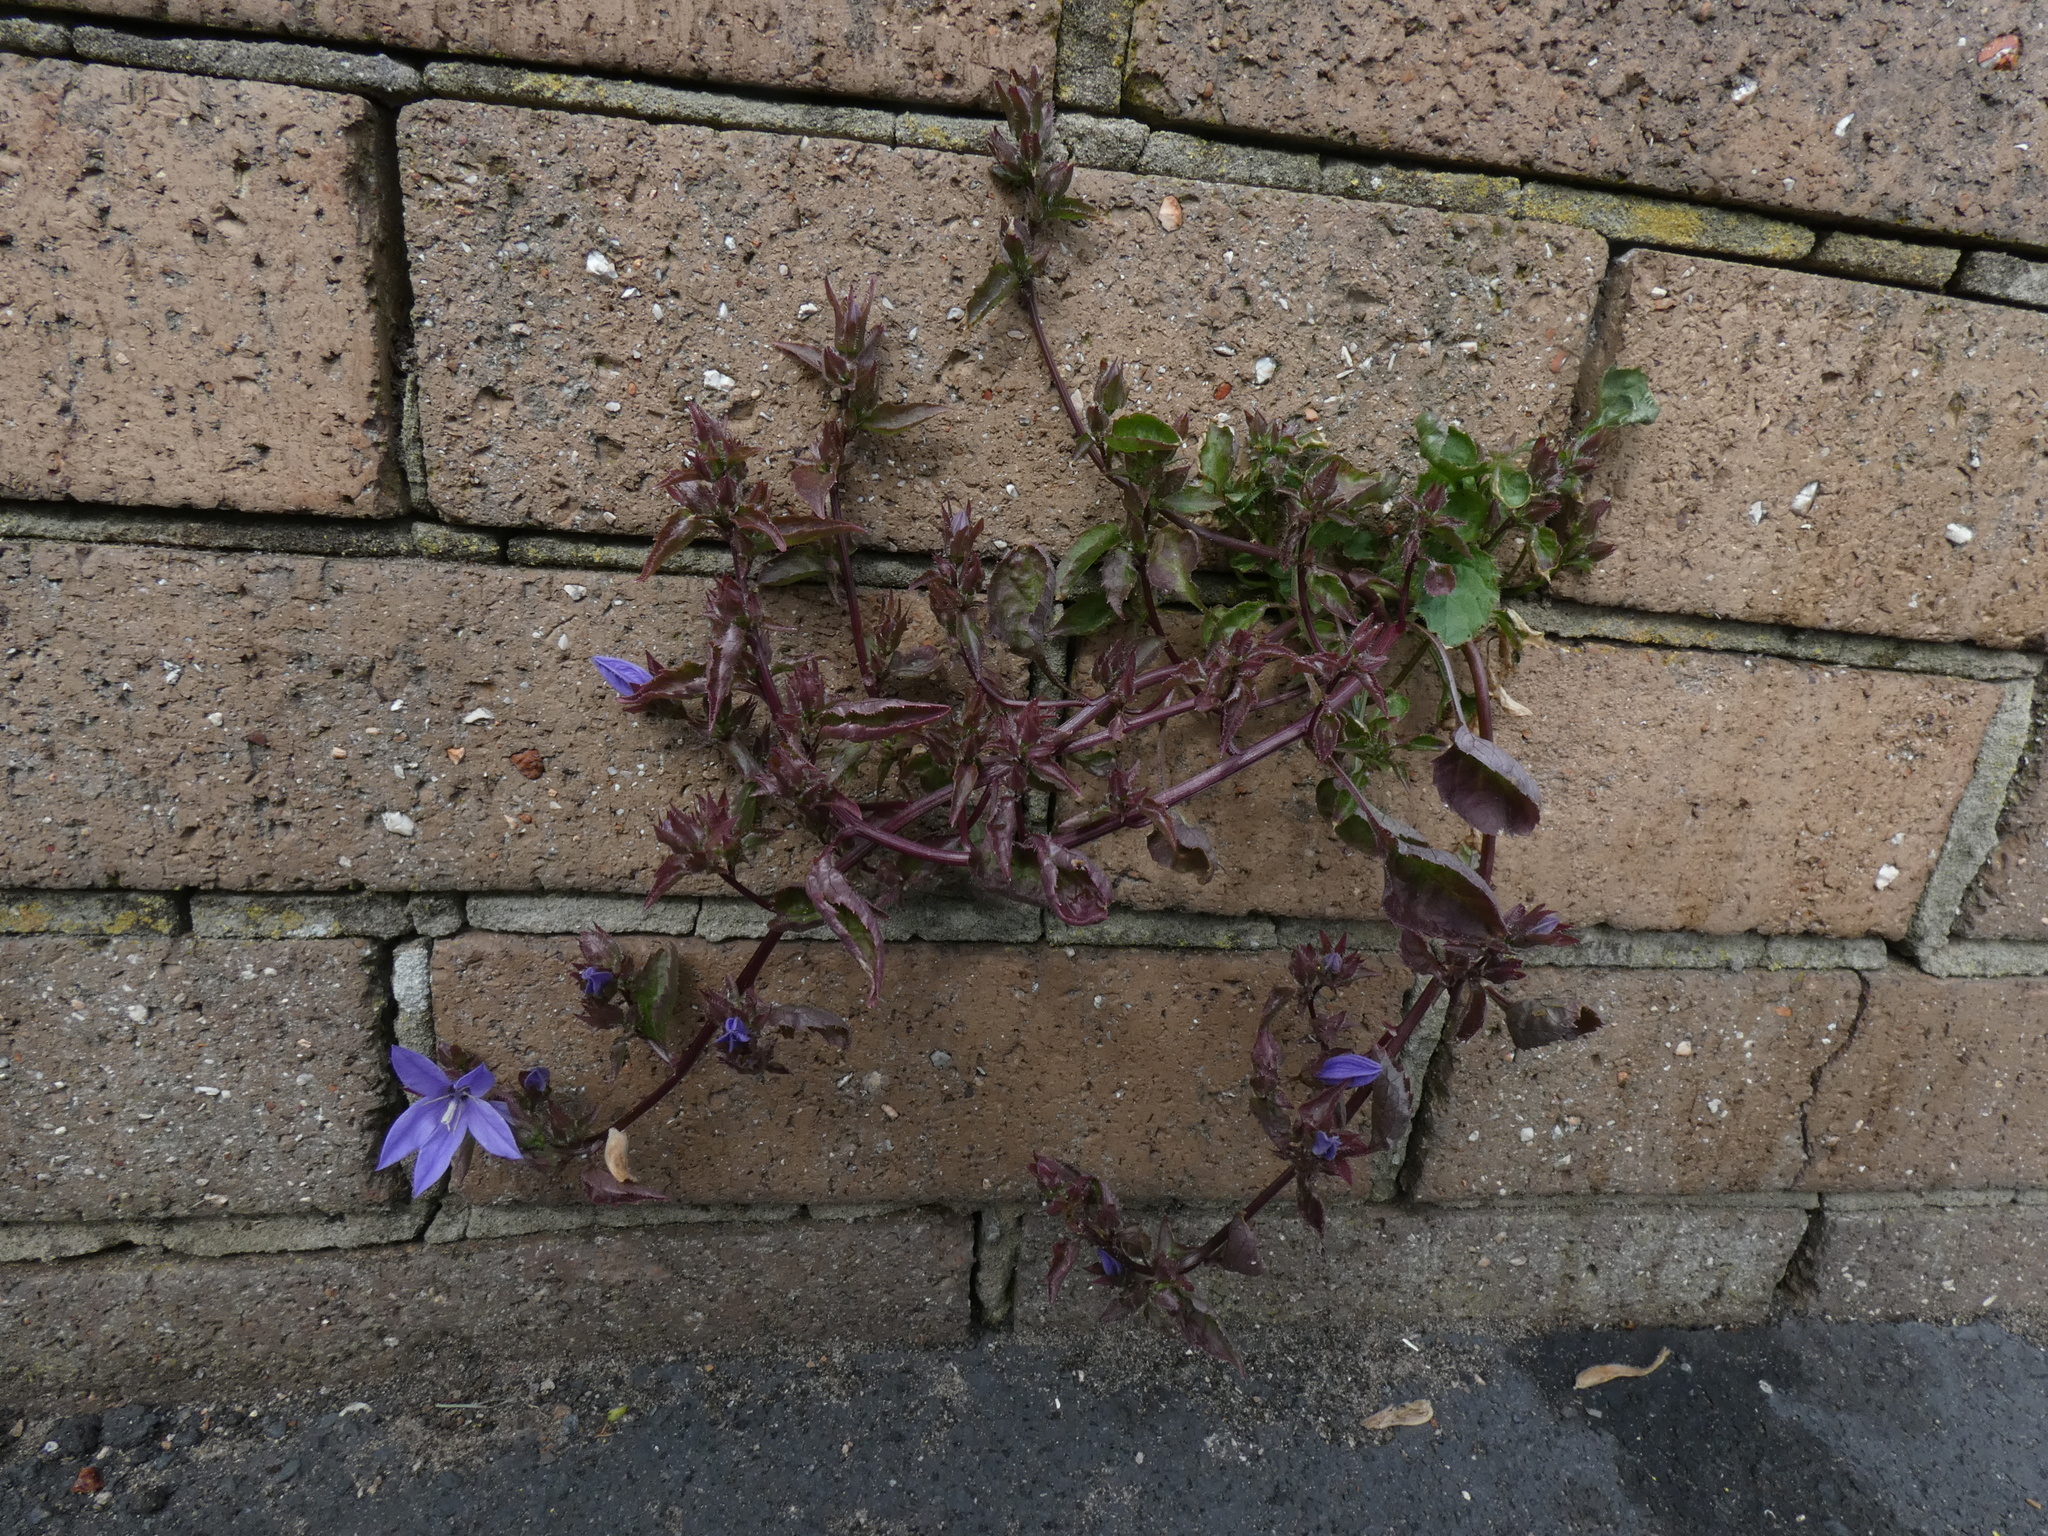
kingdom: Plantae
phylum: Tracheophyta
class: Magnoliopsida
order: Asterales
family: Campanulaceae
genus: Campanula
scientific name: Campanula poscharskyana
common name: Trailing bellflower
